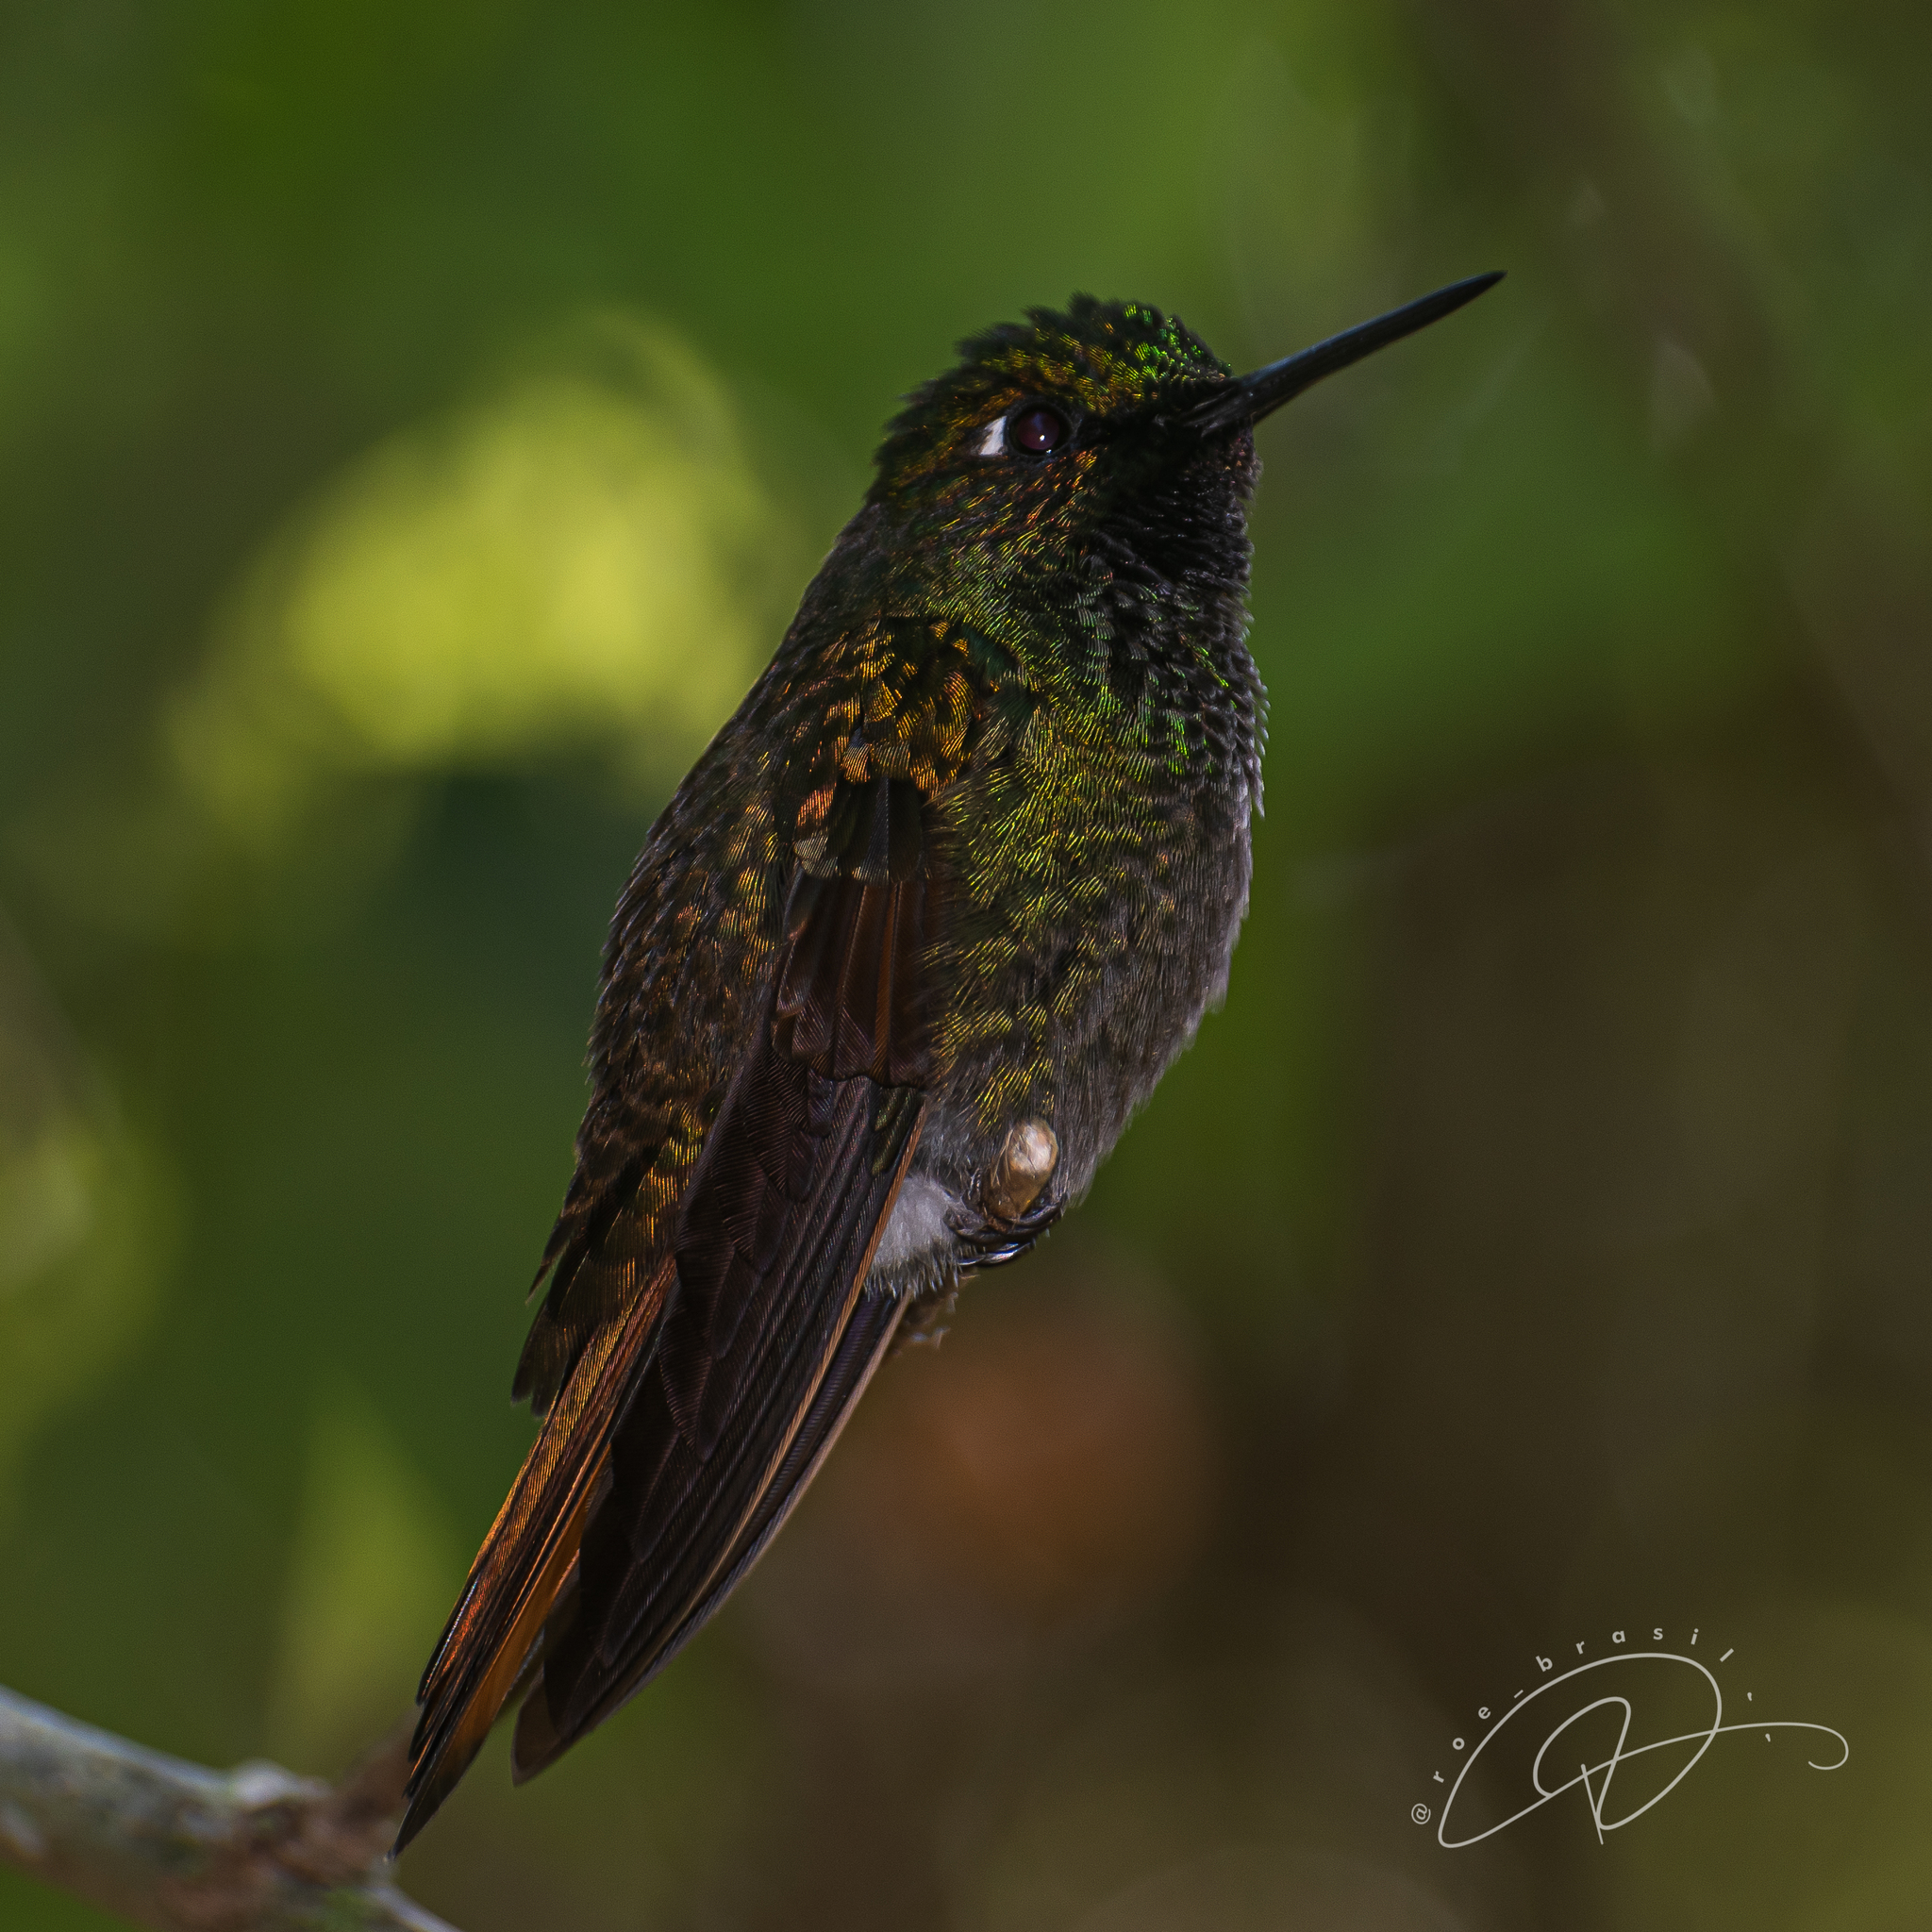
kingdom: Animalia
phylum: Chordata
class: Aves
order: Apodiformes
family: Trochilidae
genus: Clytolaema
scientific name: Clytolaema rubricauda
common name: Brazilian ruby
